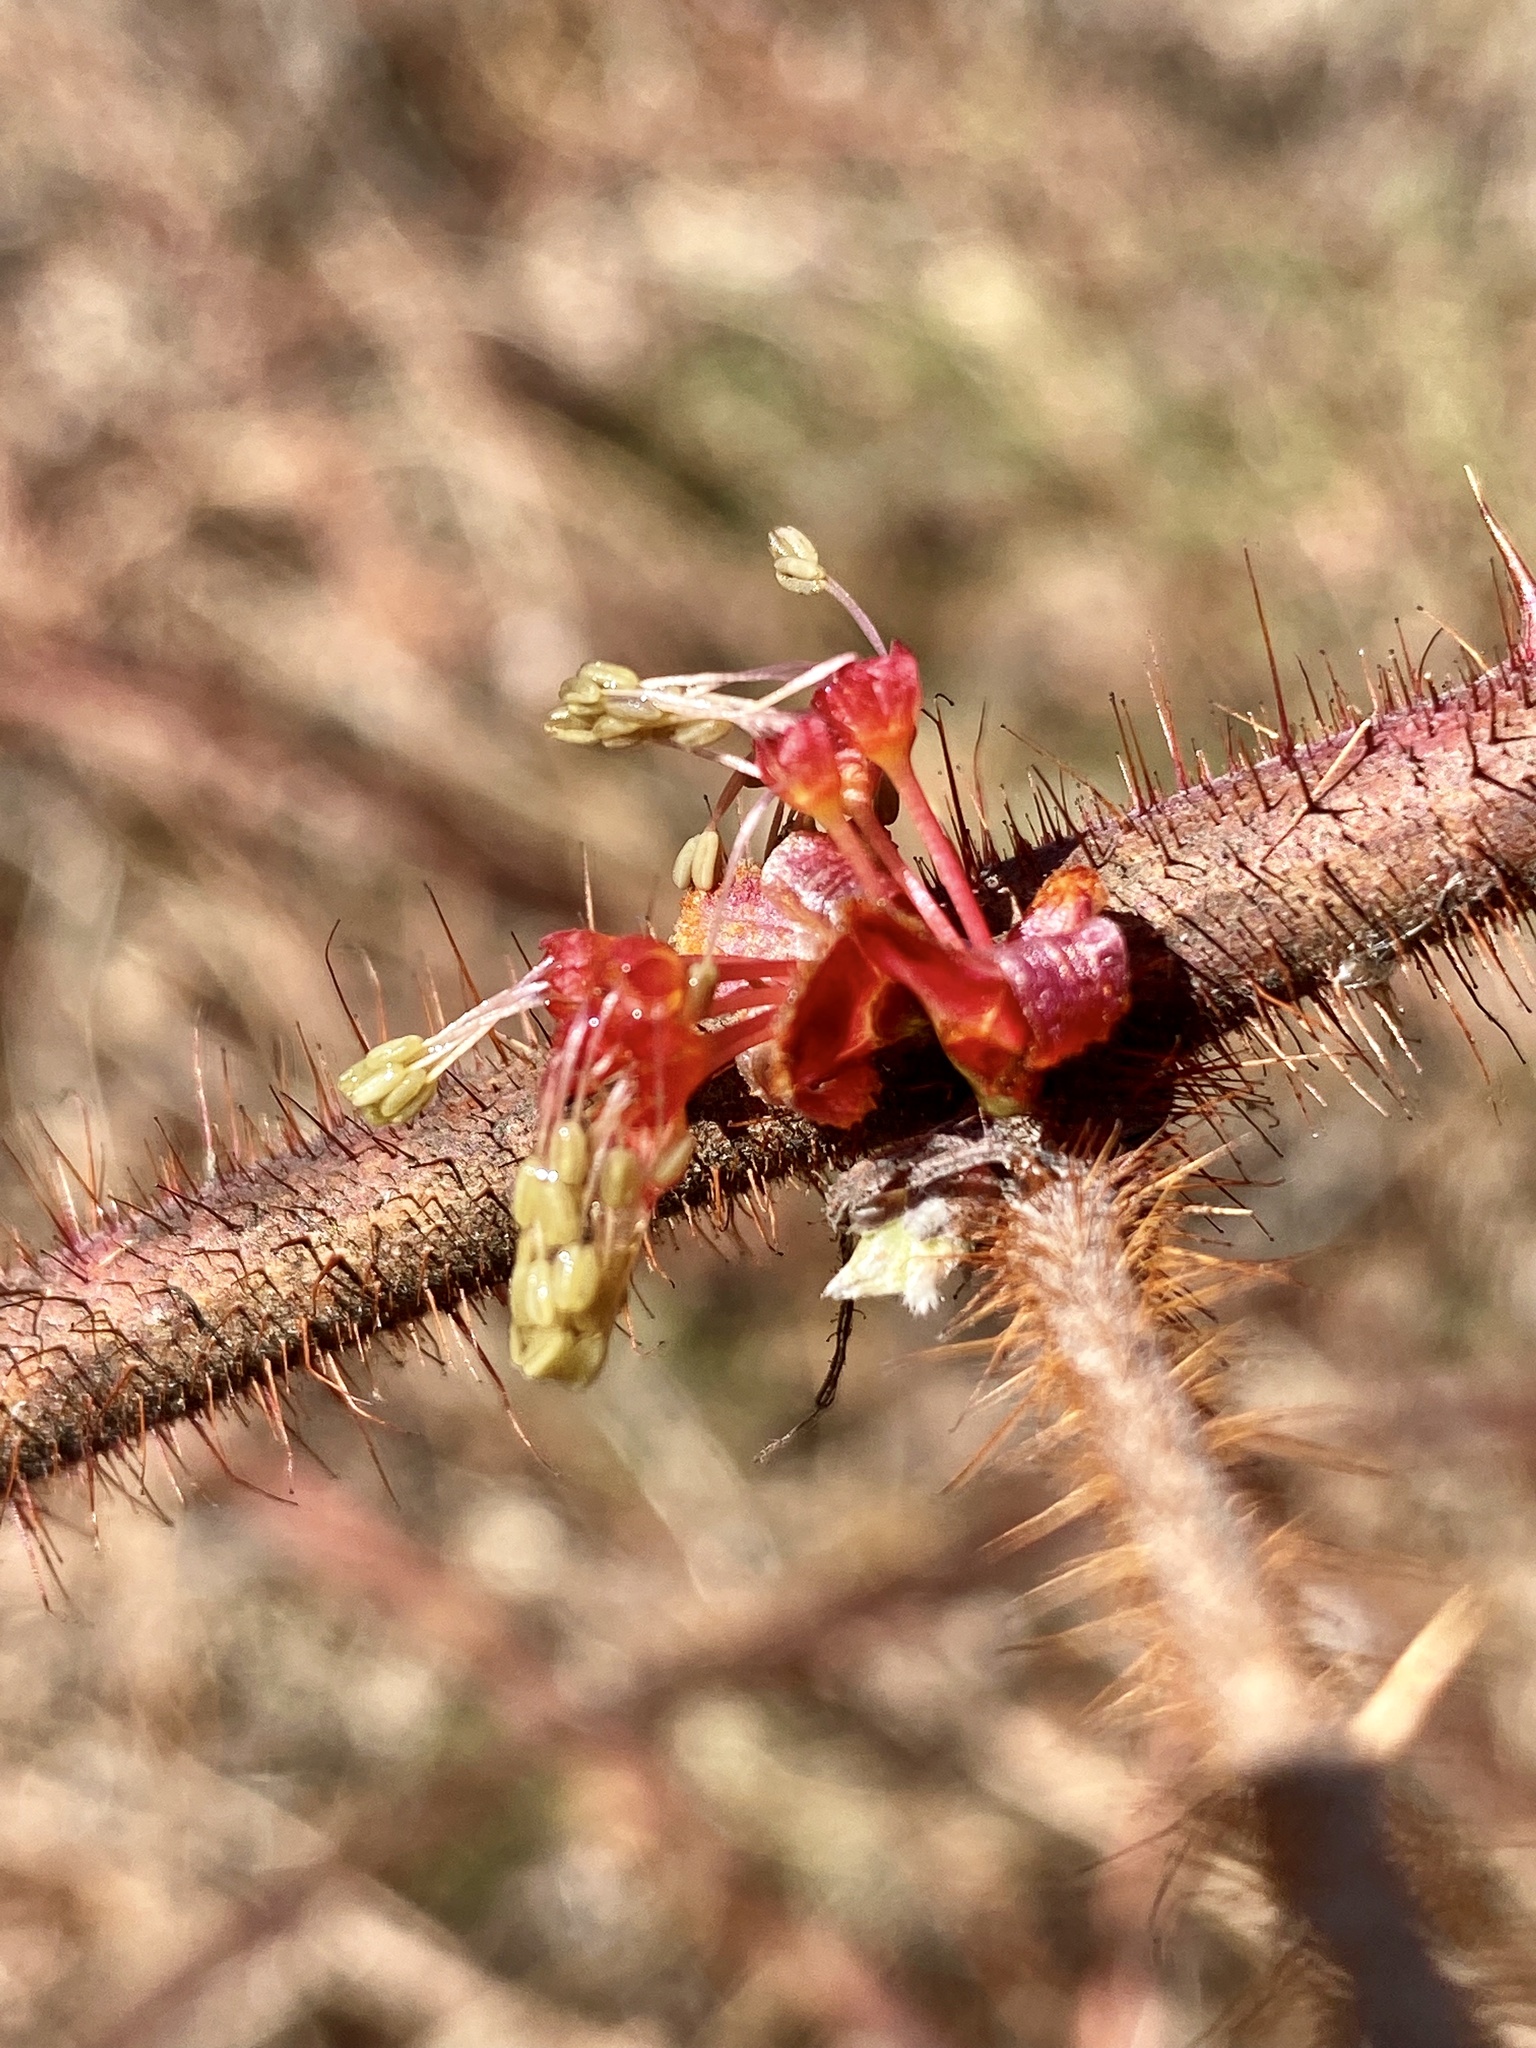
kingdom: Plantae
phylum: Tracheophyta
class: Magnoliopsida
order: Rosales
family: Rosaceae
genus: Rubus
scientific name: Rubus phoenicolasius
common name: Japanese wineberry
